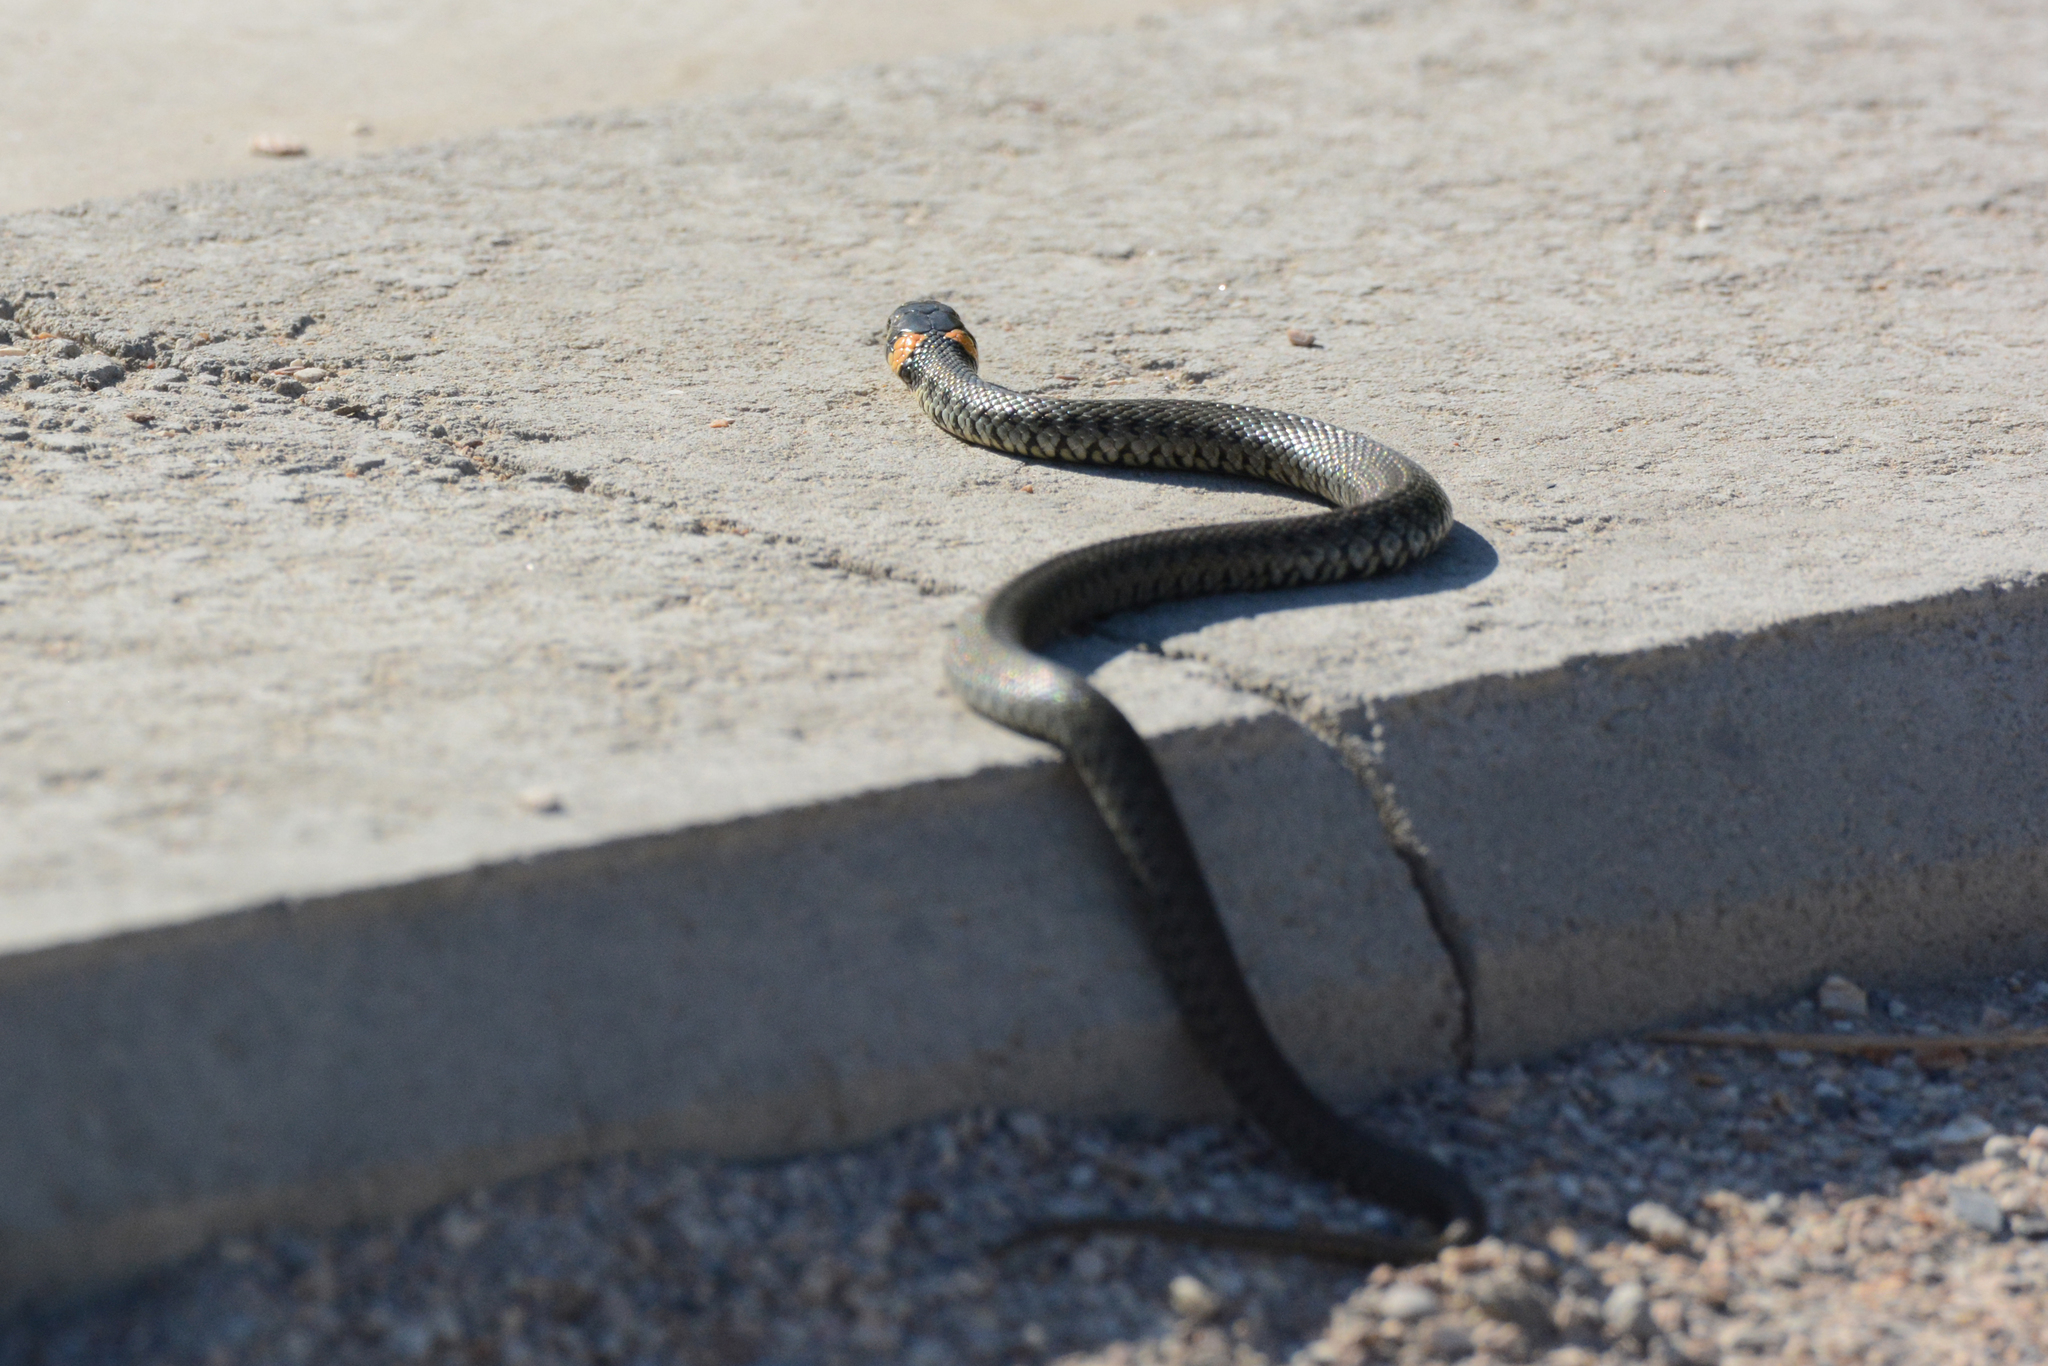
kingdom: Animalia
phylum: Chordata
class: Squamata
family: Colubridae
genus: Natrix
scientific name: Natrix natrix
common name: Grass snake
